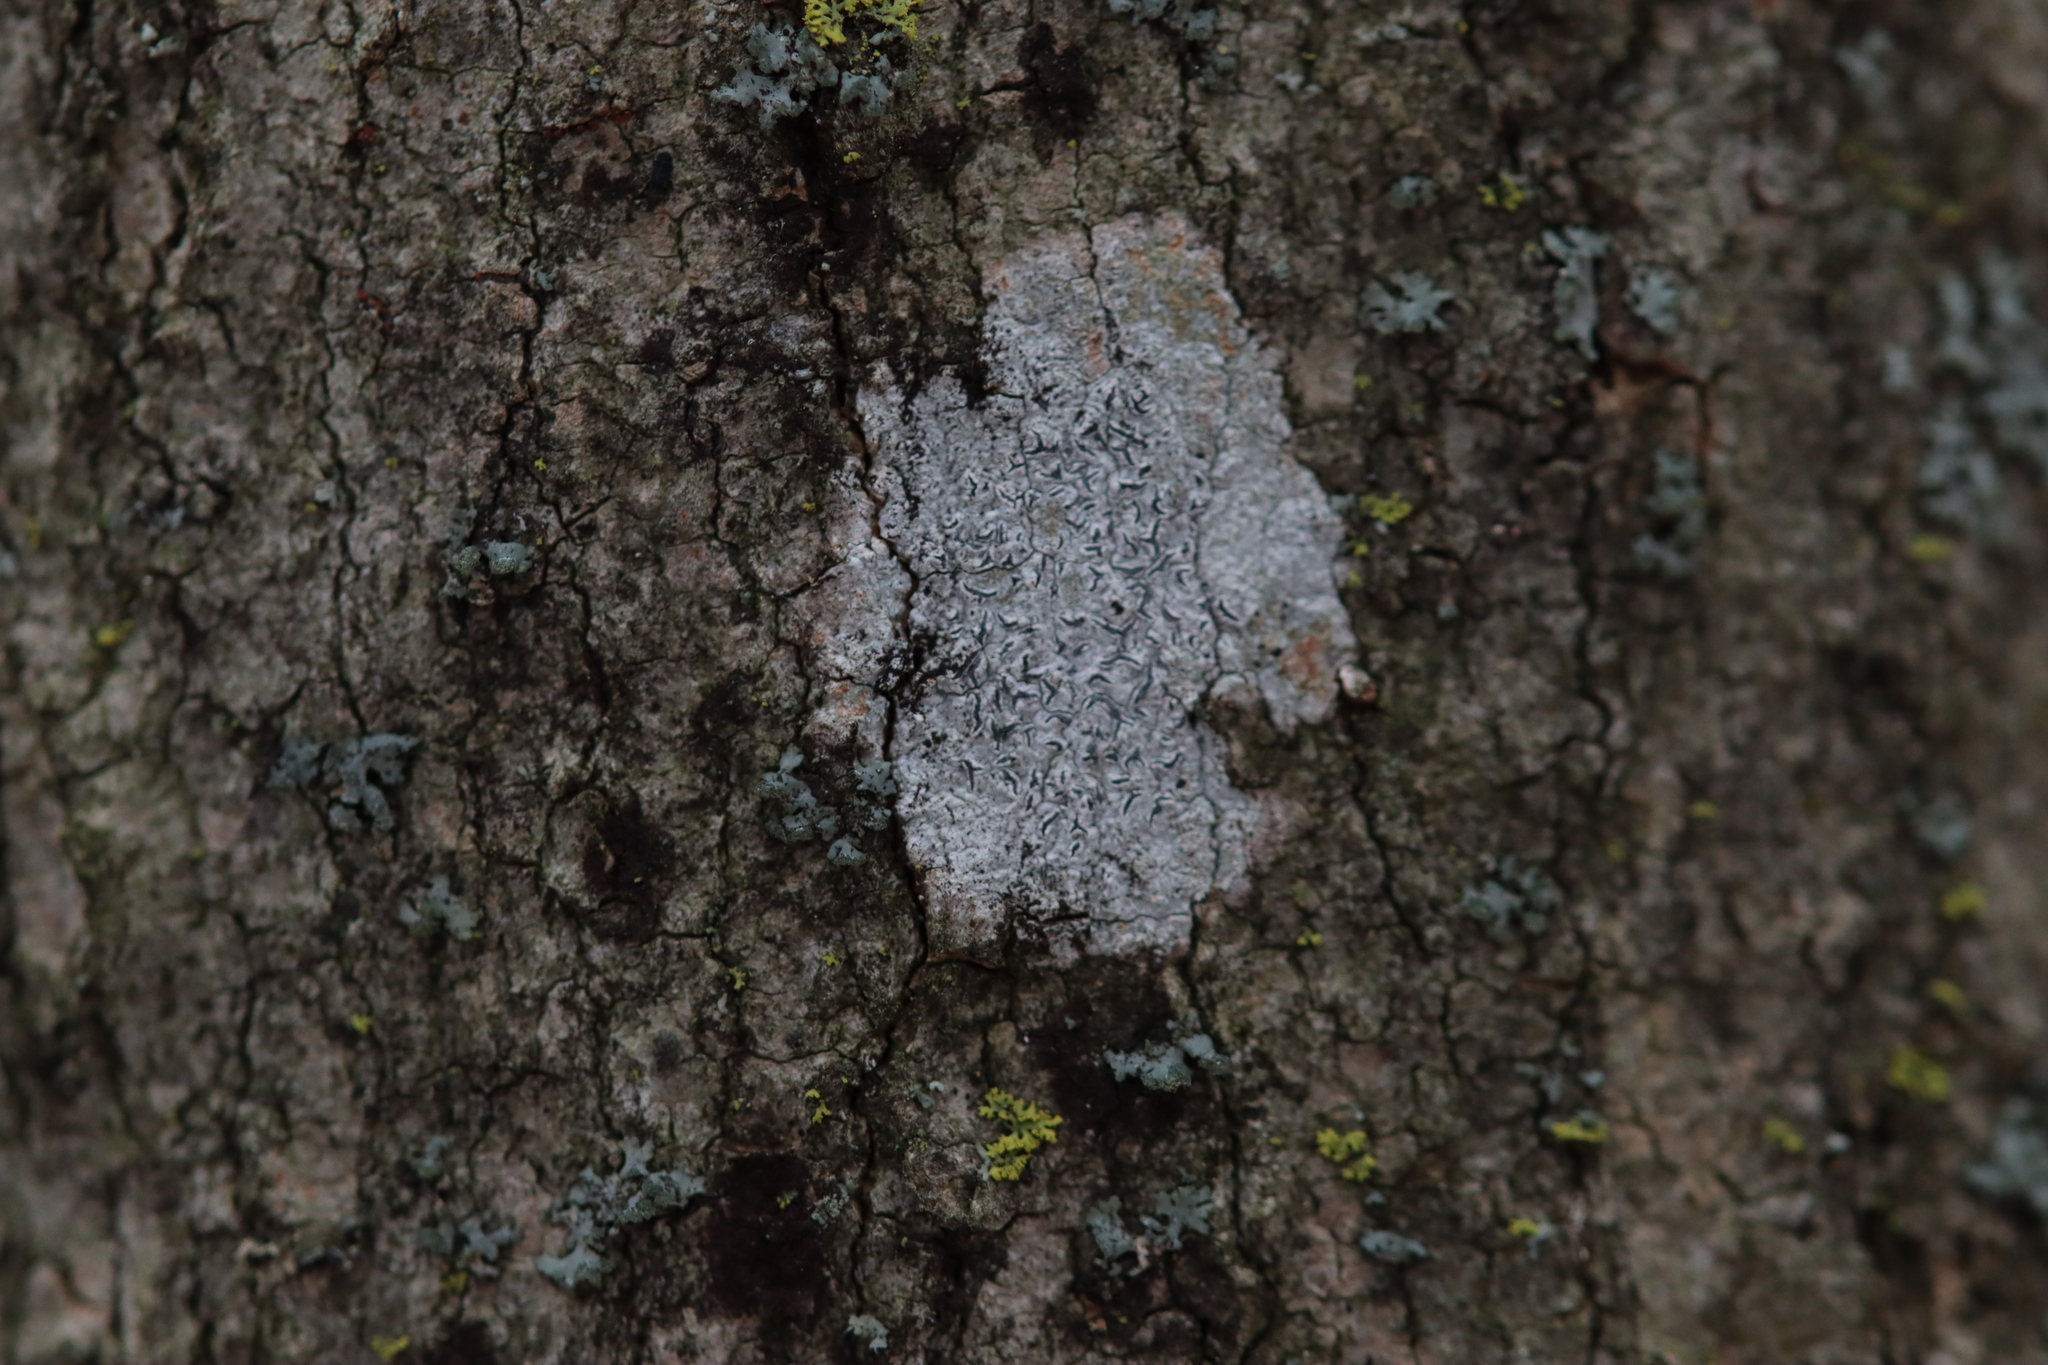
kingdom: Fungi
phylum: Ascomycota
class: Lecanoromycetes
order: Ostropales
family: Graphidaceae
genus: Graphis
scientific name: Graphis scripta
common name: Script lichen
